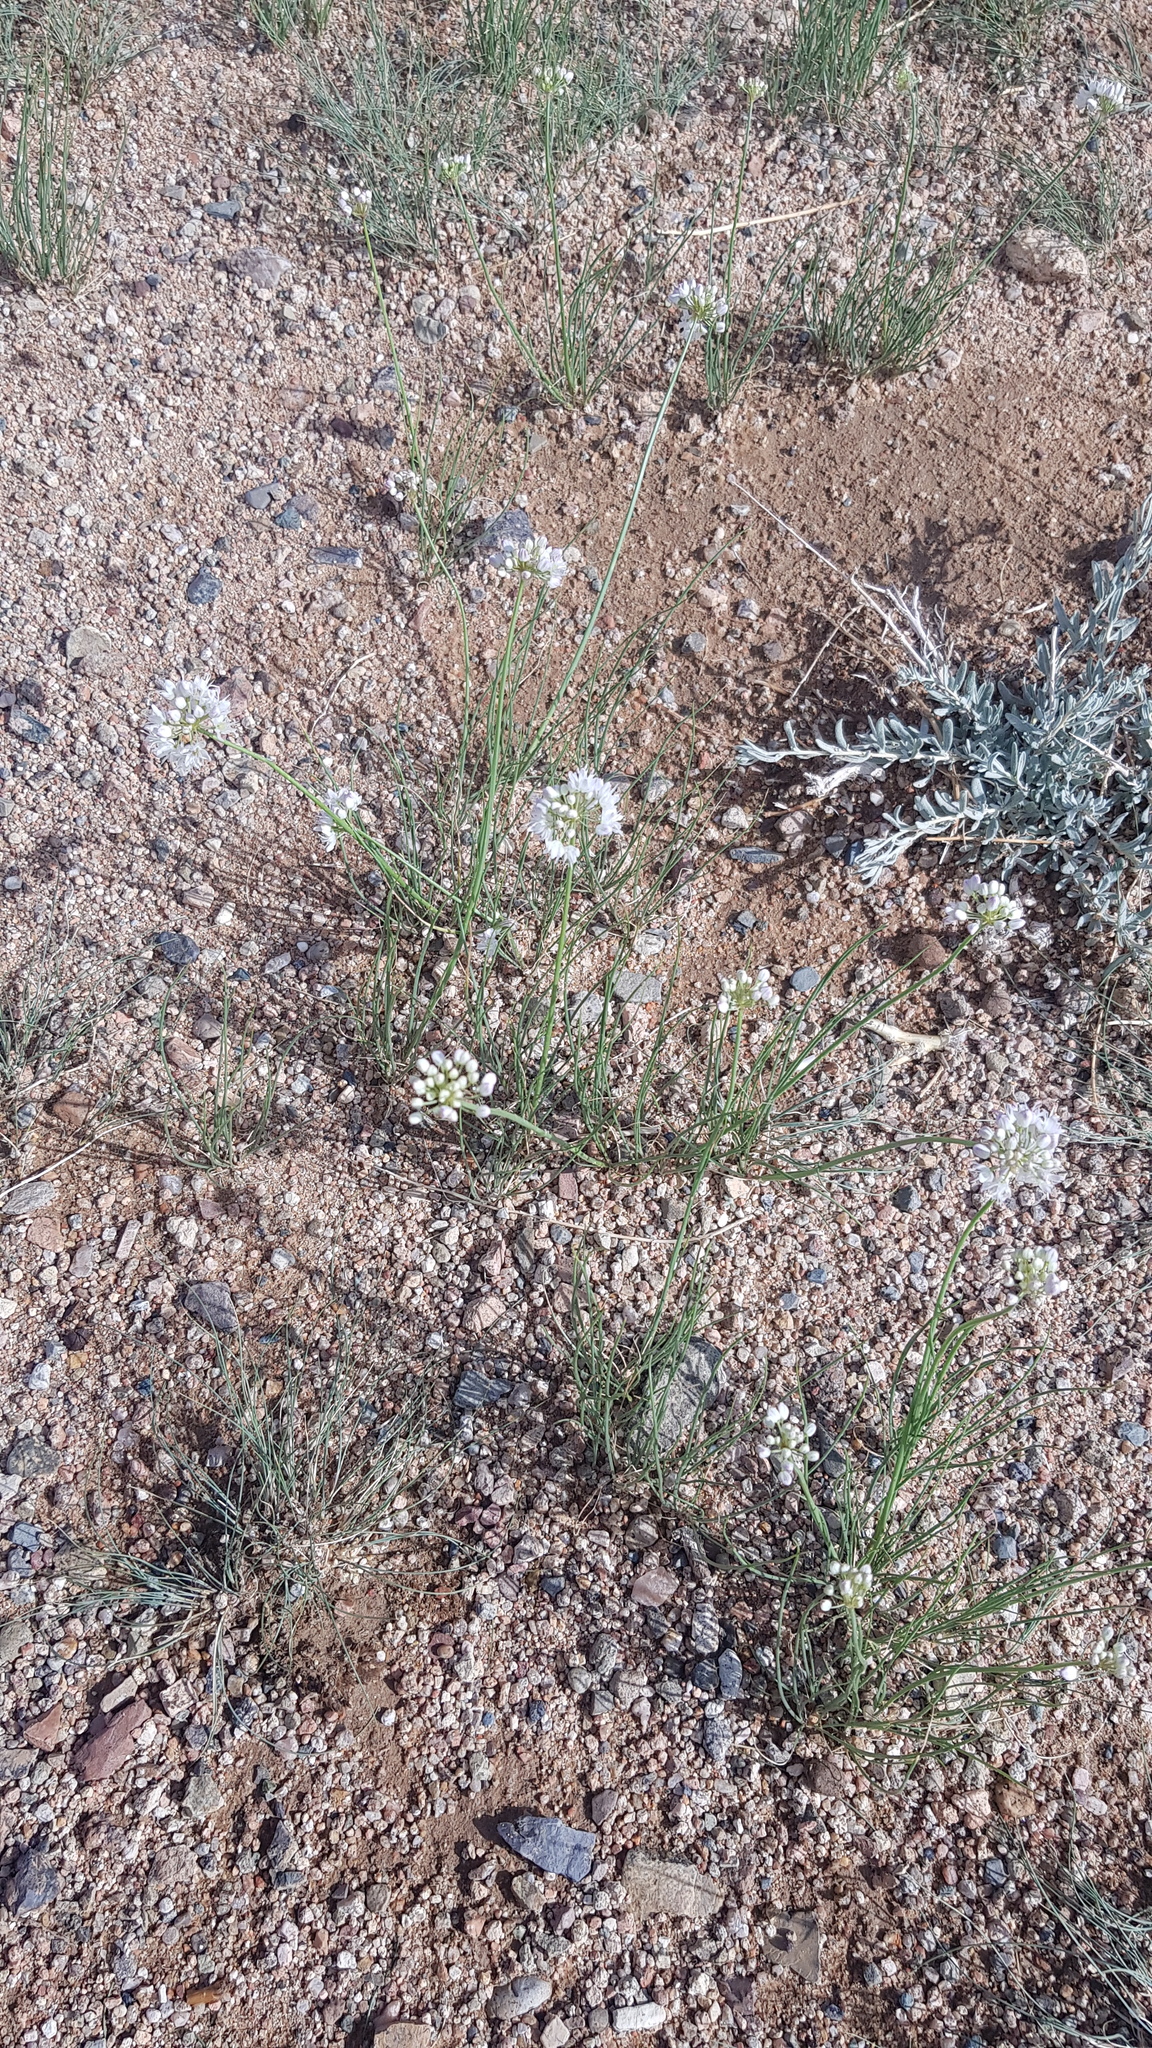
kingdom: Plantae
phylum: Tracheophyta
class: Liliopsida
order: Asparagales
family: Amaryllidaceae
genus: Allium
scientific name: Allium polyrhizum
